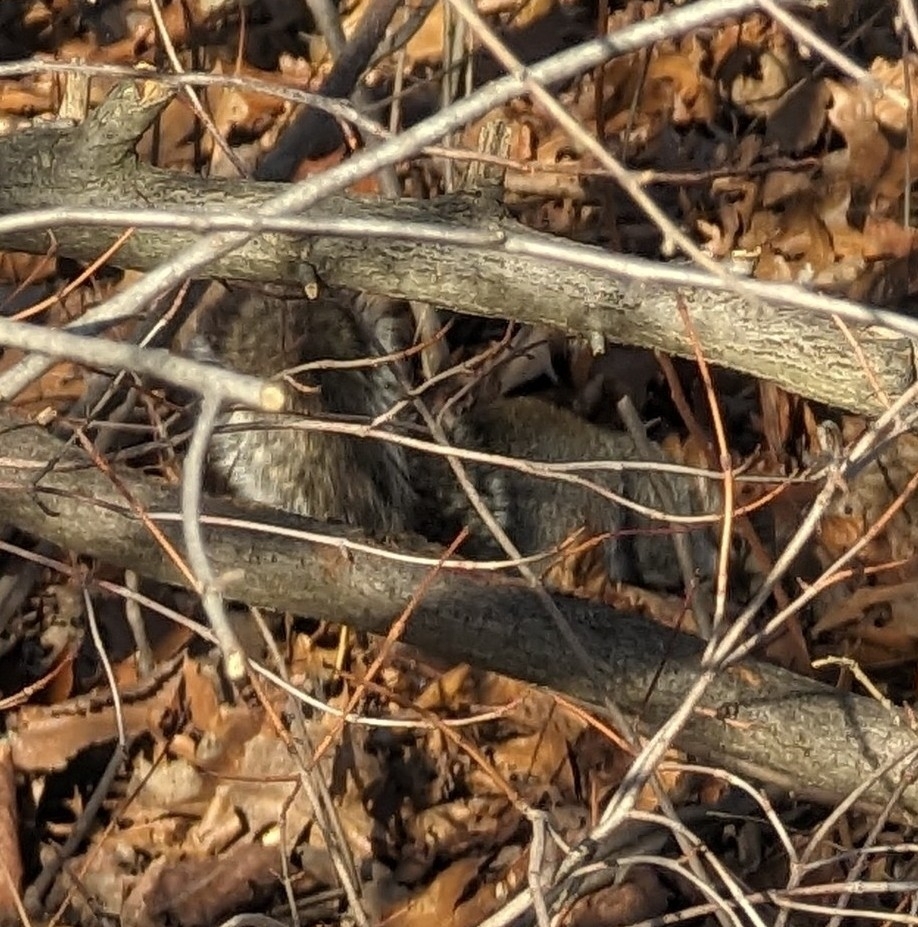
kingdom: Animalia
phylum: Chordata
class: Mammalia
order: Rodentia
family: Sciuridae
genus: Sciurus
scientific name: Sciurus carolinensis
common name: Eastern gray squirrel
